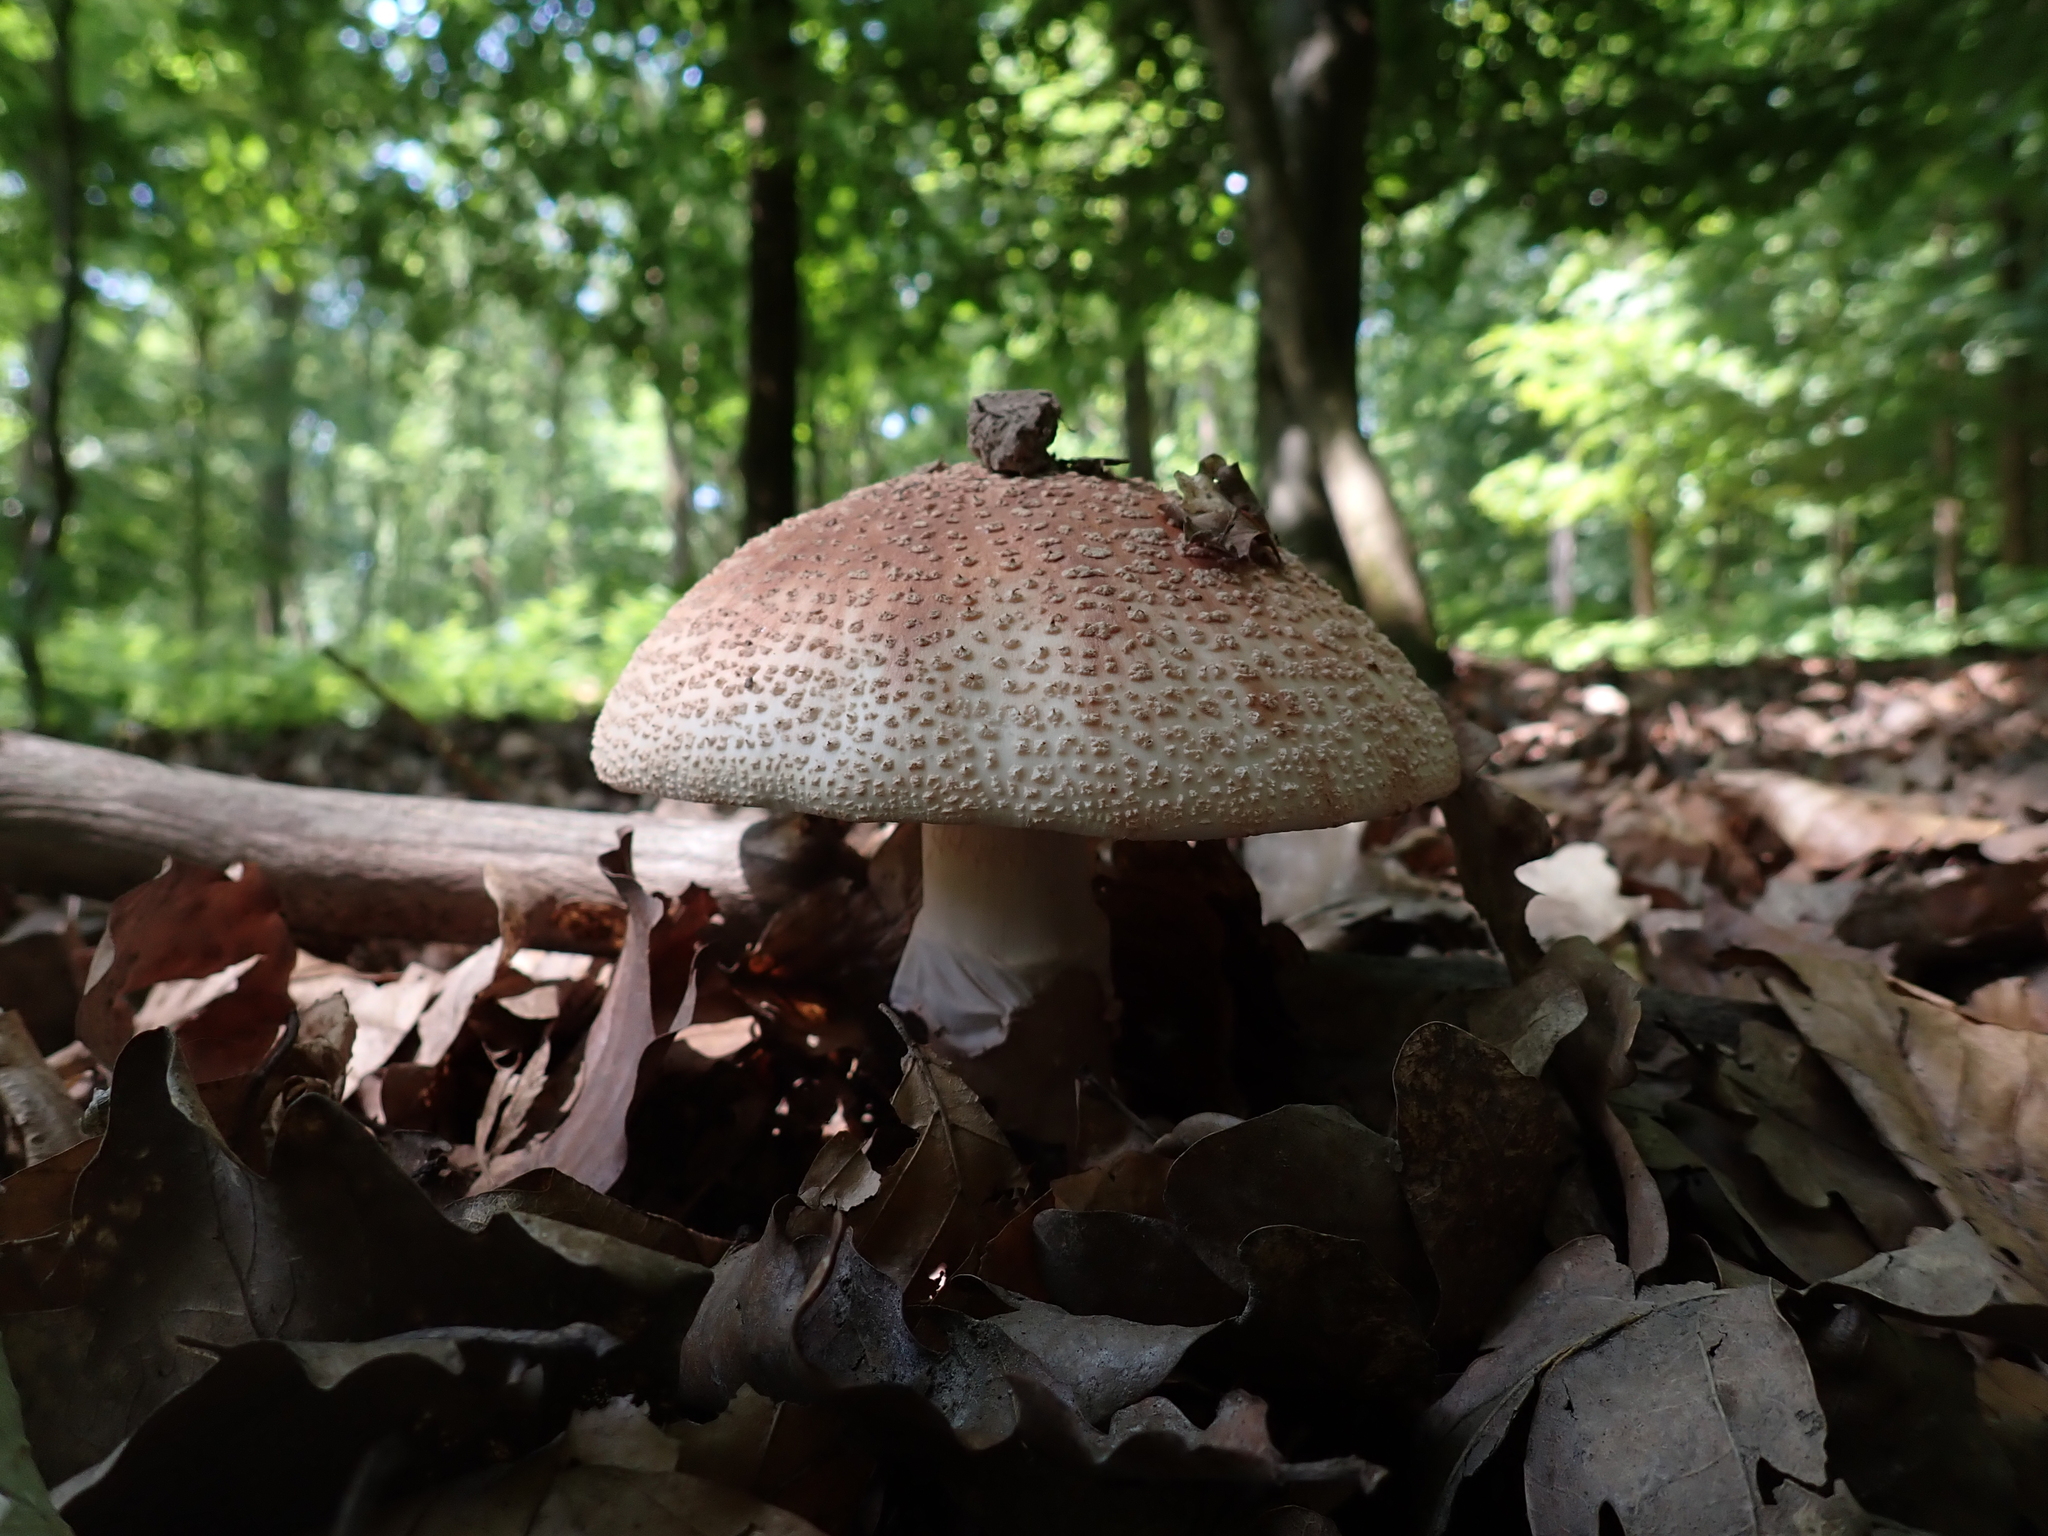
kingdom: Fungi
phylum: Basidiomycota
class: Agaricomycetes
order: Agaricales
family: Amanitaceae
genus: Amanita
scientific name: Amanita rubescens
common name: Blusher
